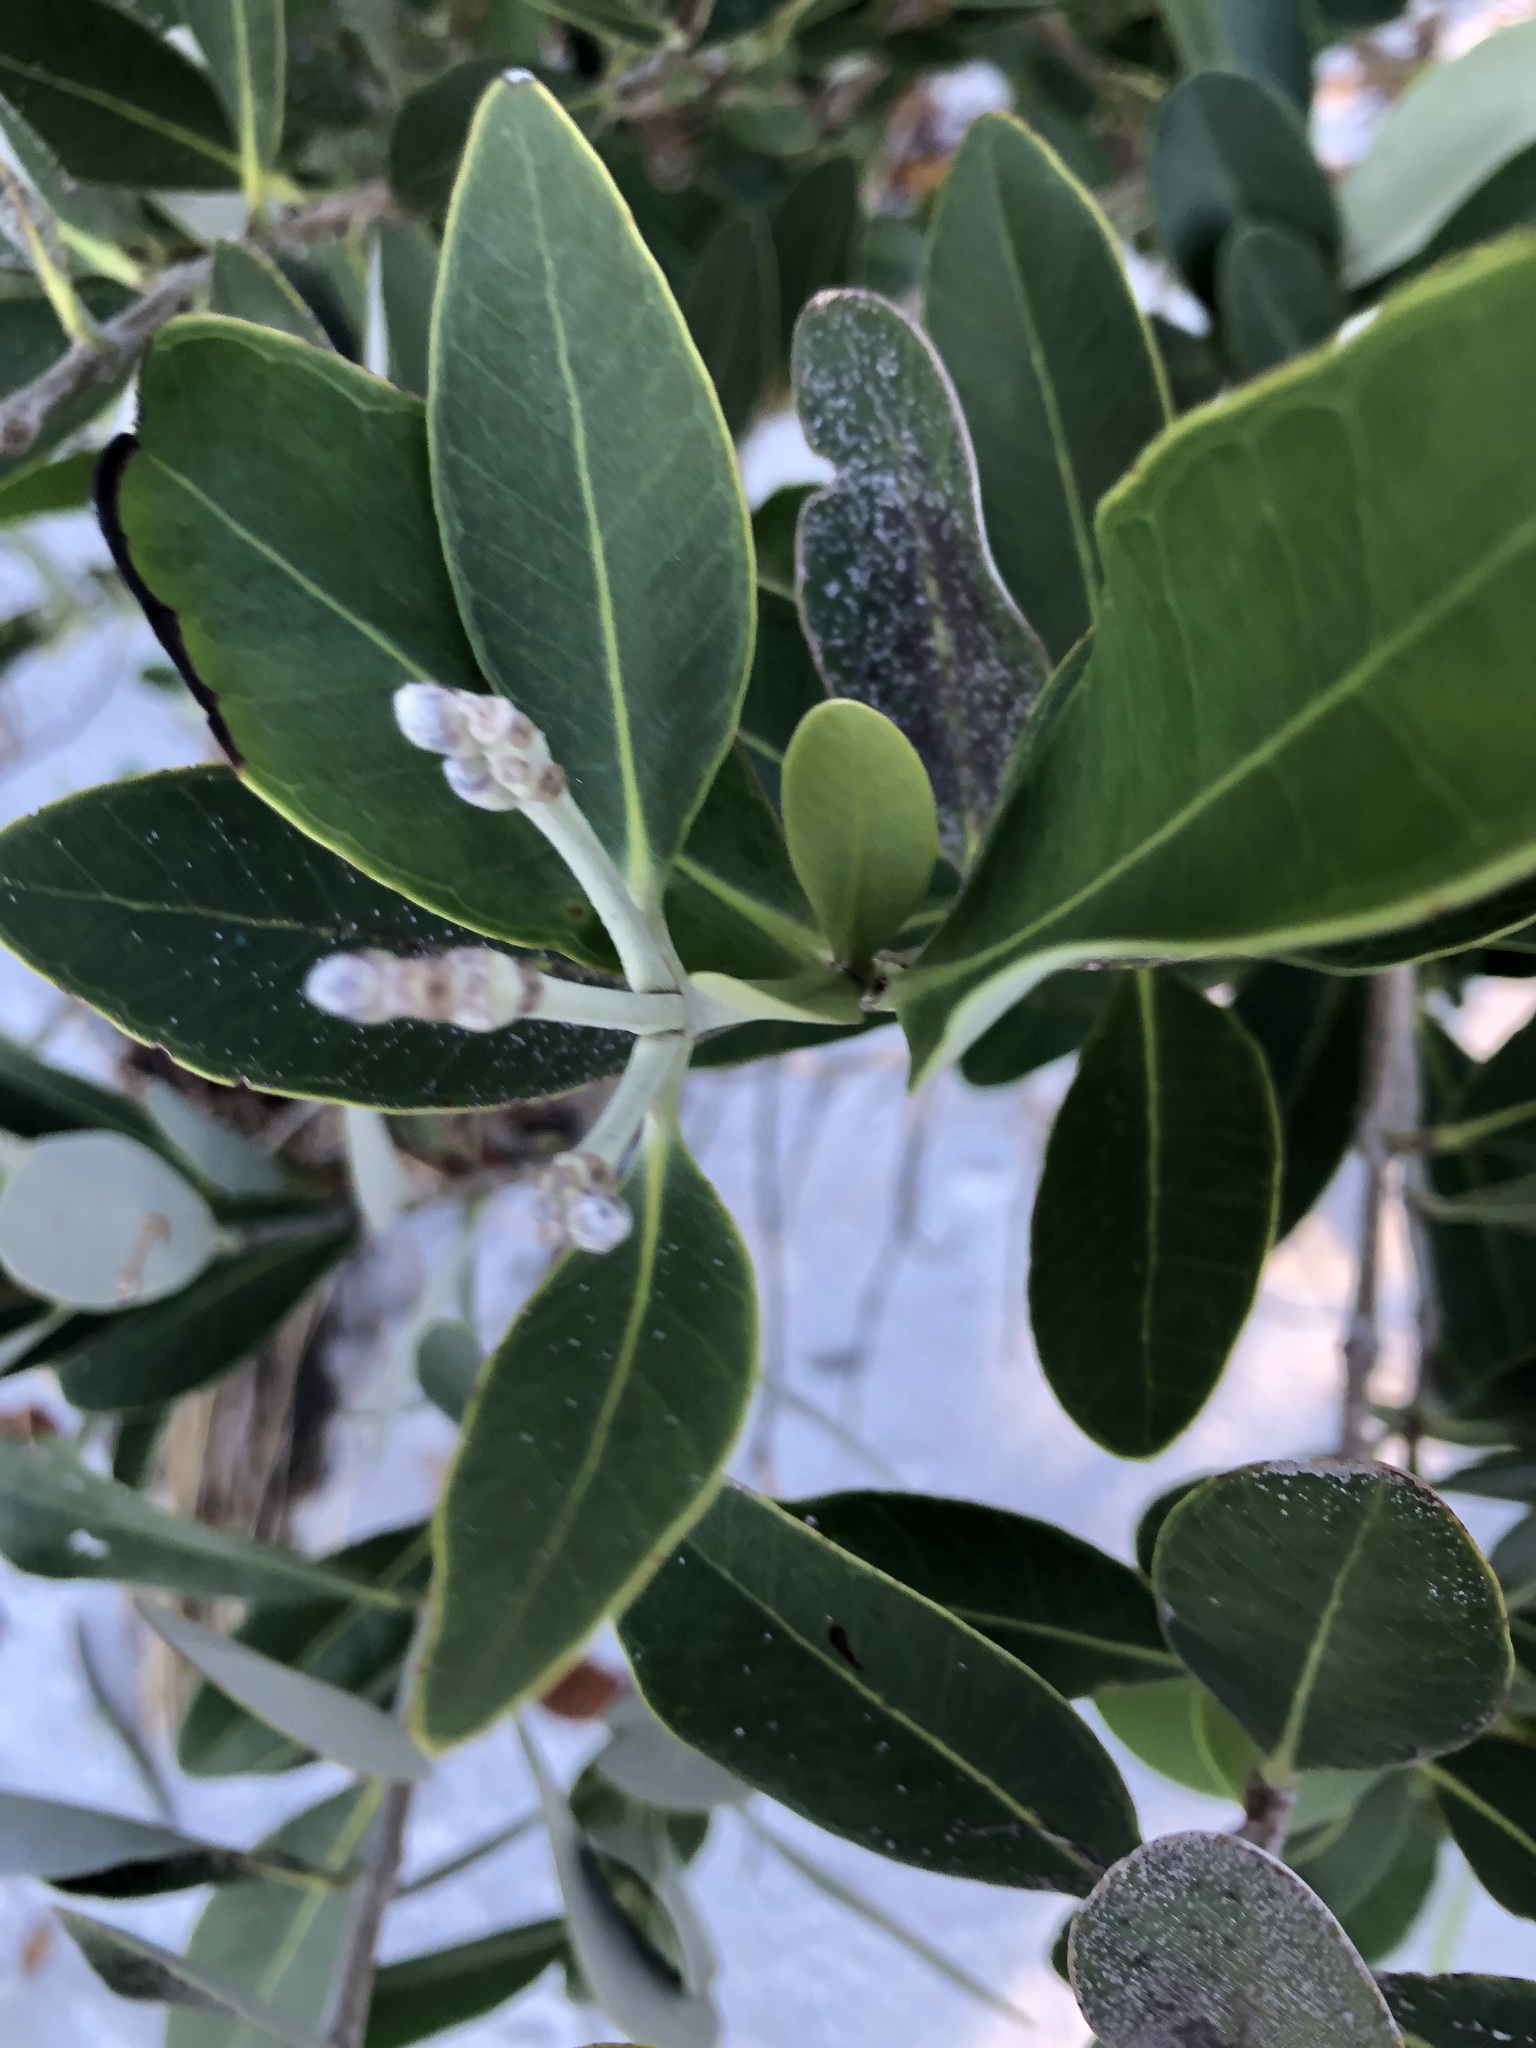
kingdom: Plantae
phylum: Tracheophyta
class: Magnoliopsida
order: Lamiales
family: Acanthaceae
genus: Avicennia
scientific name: Avicennia germinans
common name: Black mangrove
